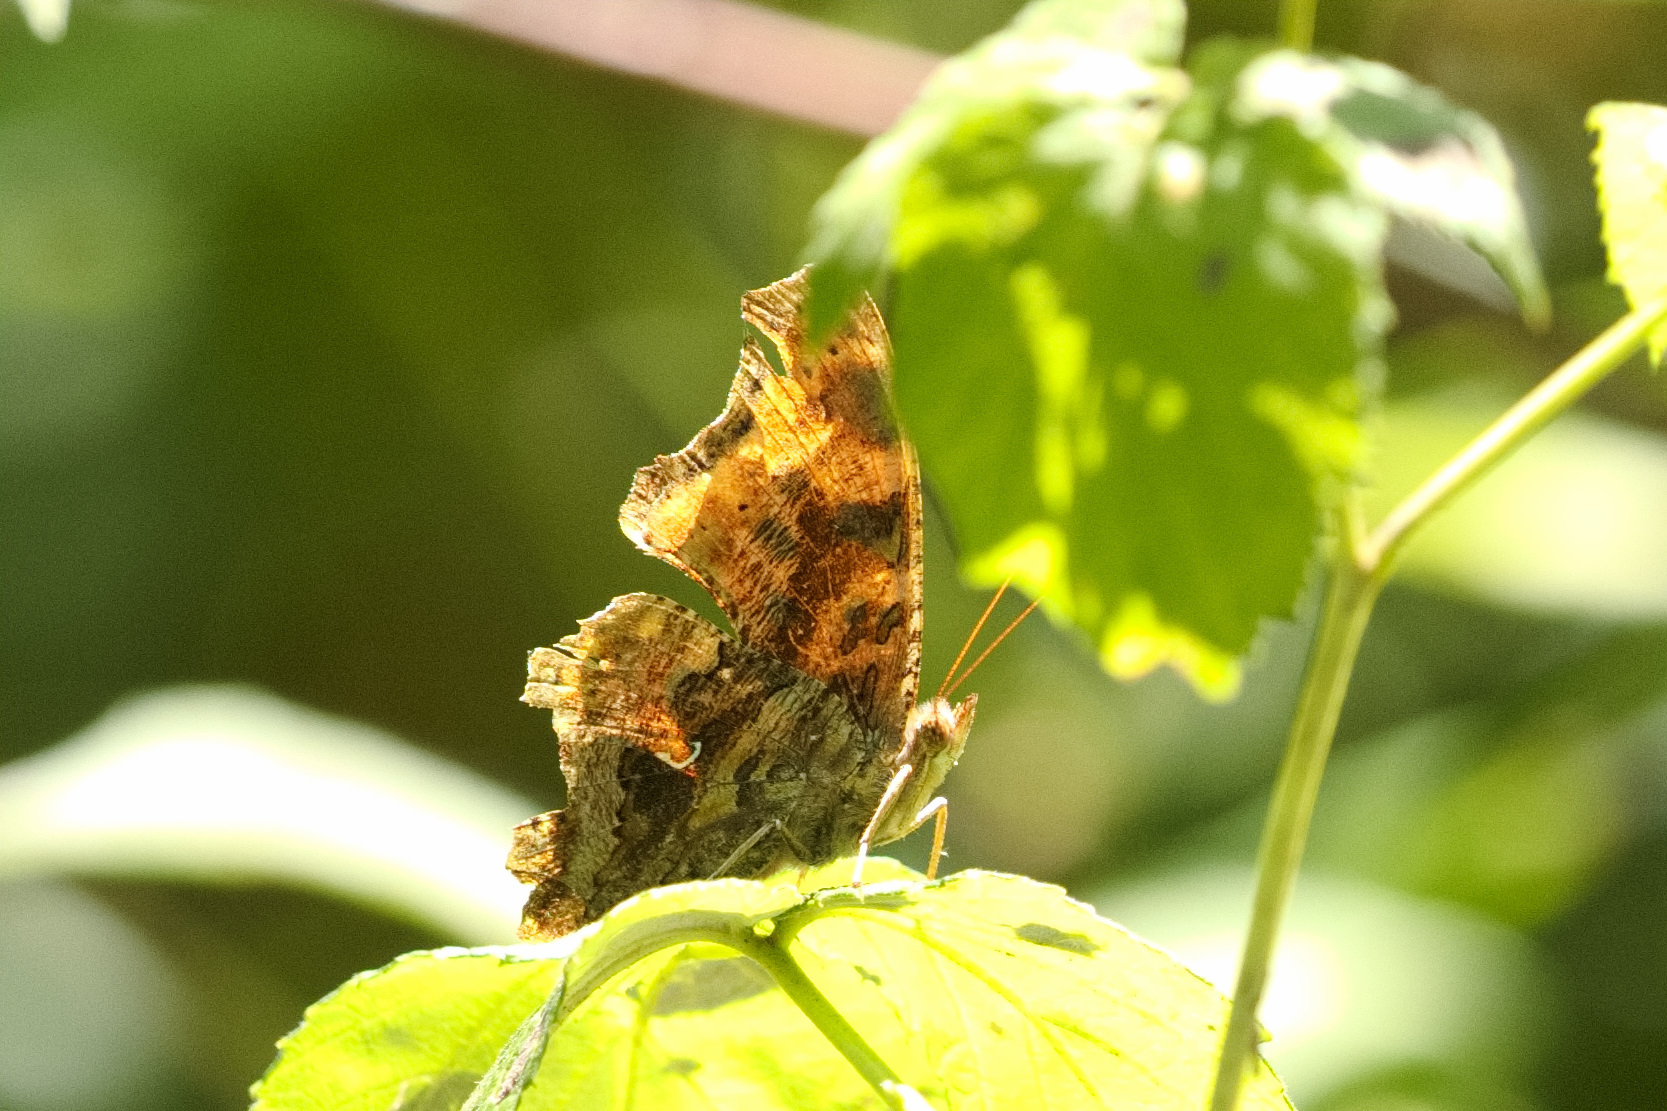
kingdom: Animalia
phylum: Arthropoda
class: Insecta
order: Lepidoptera
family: Nymphalidae
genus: Polygonia
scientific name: Polygonia comma
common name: Eastern comma
